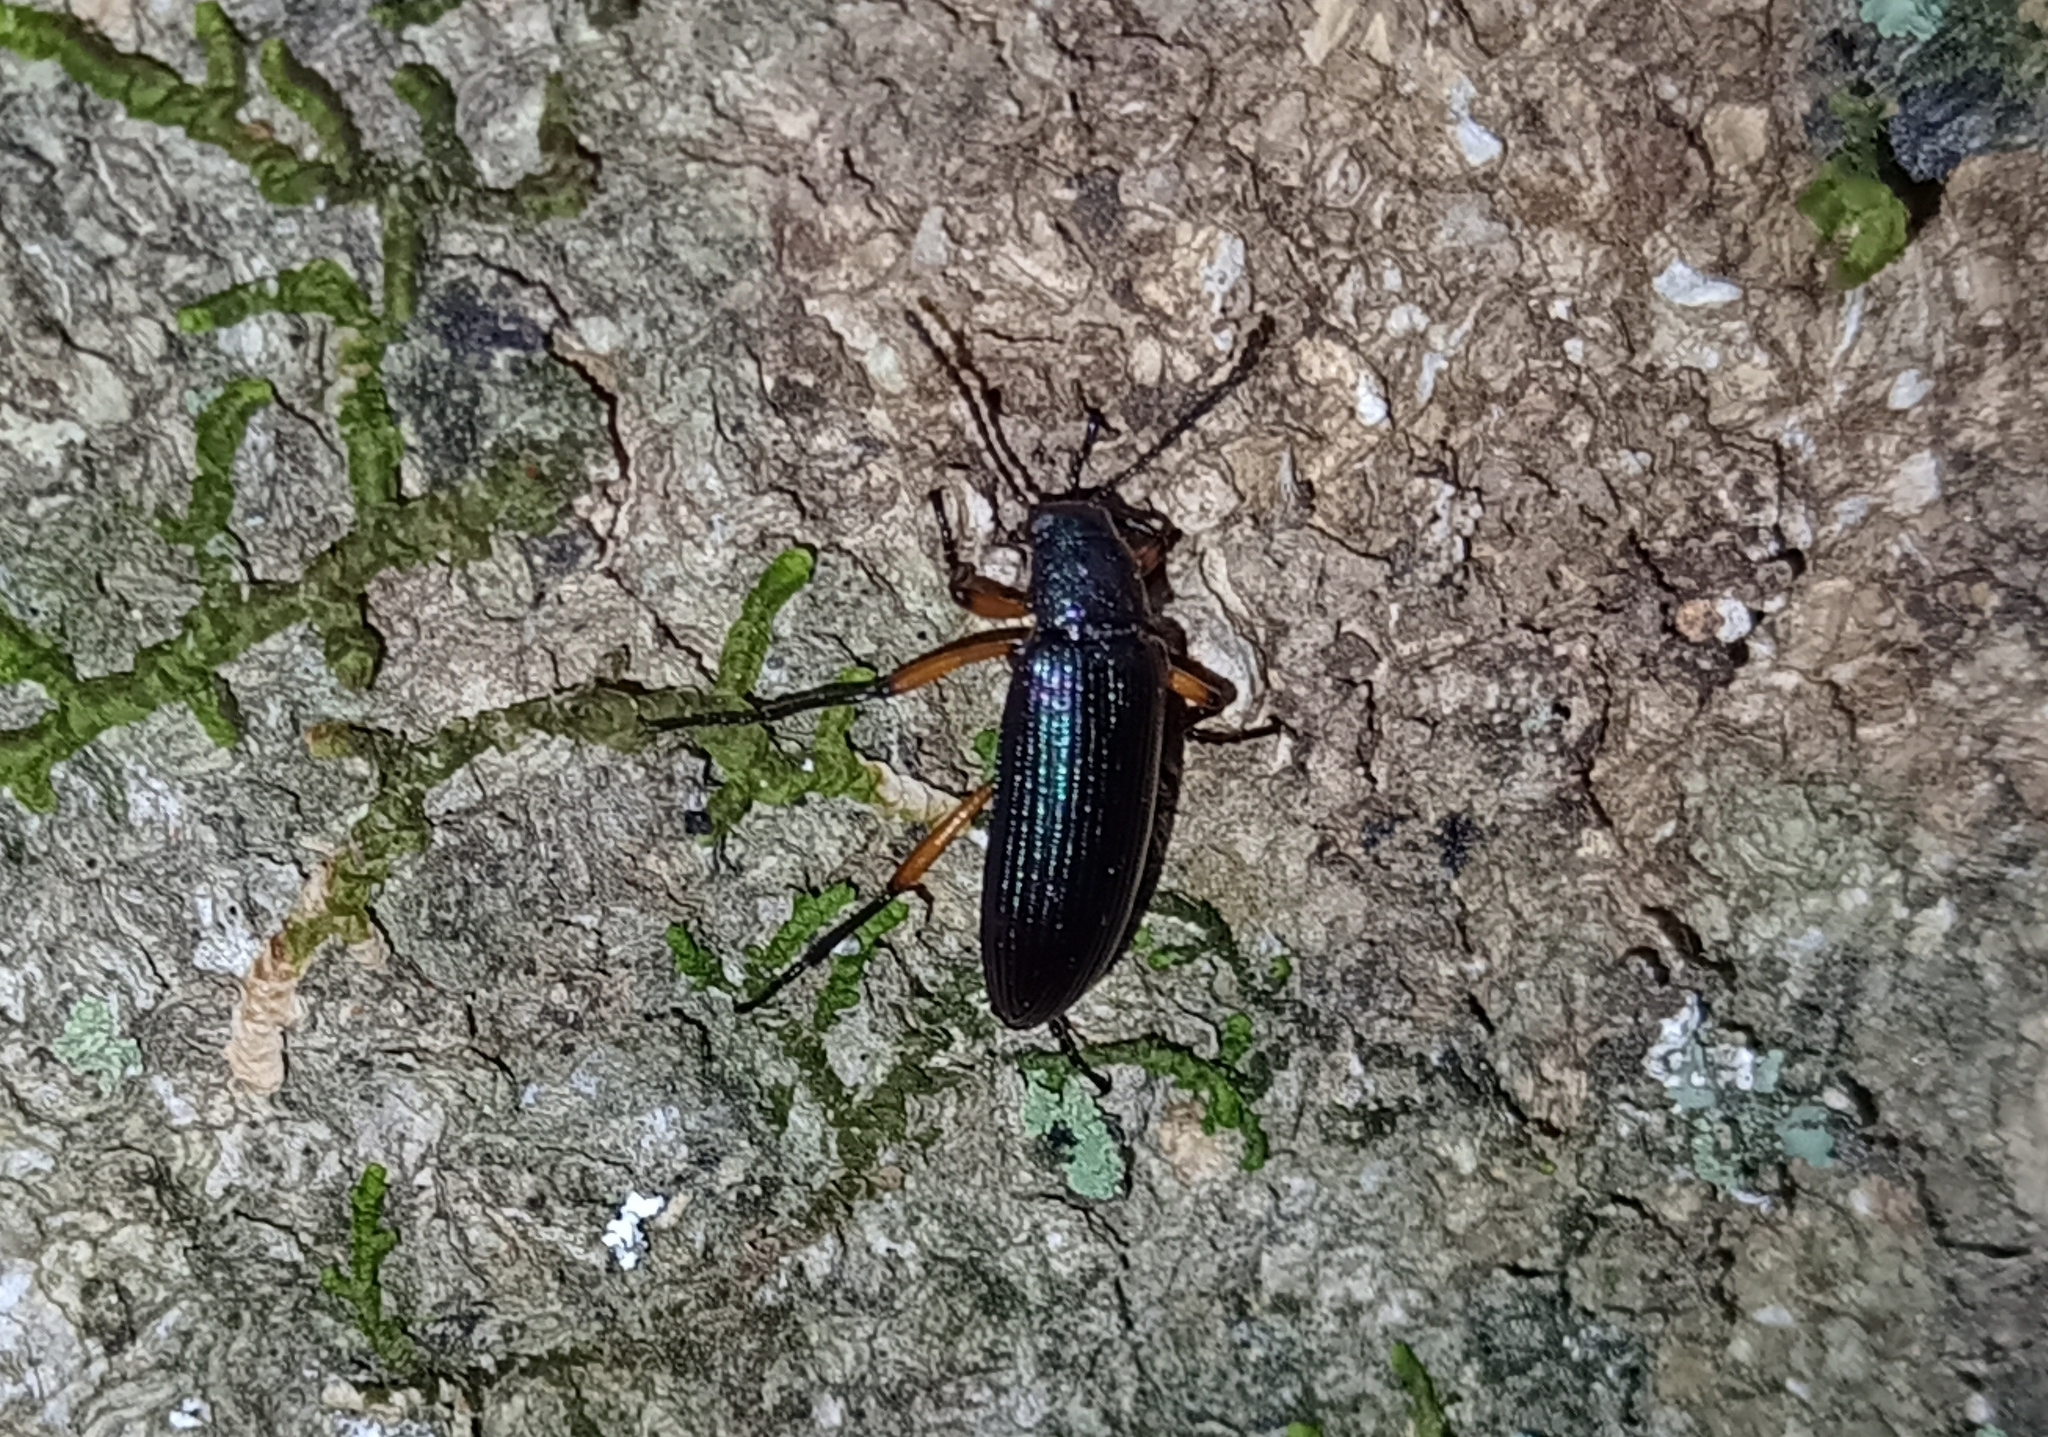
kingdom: Animalia
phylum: Arthropoda
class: Insecta
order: Coleoptera
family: Tenebrionidae
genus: Strongylium
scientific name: Strongylium
